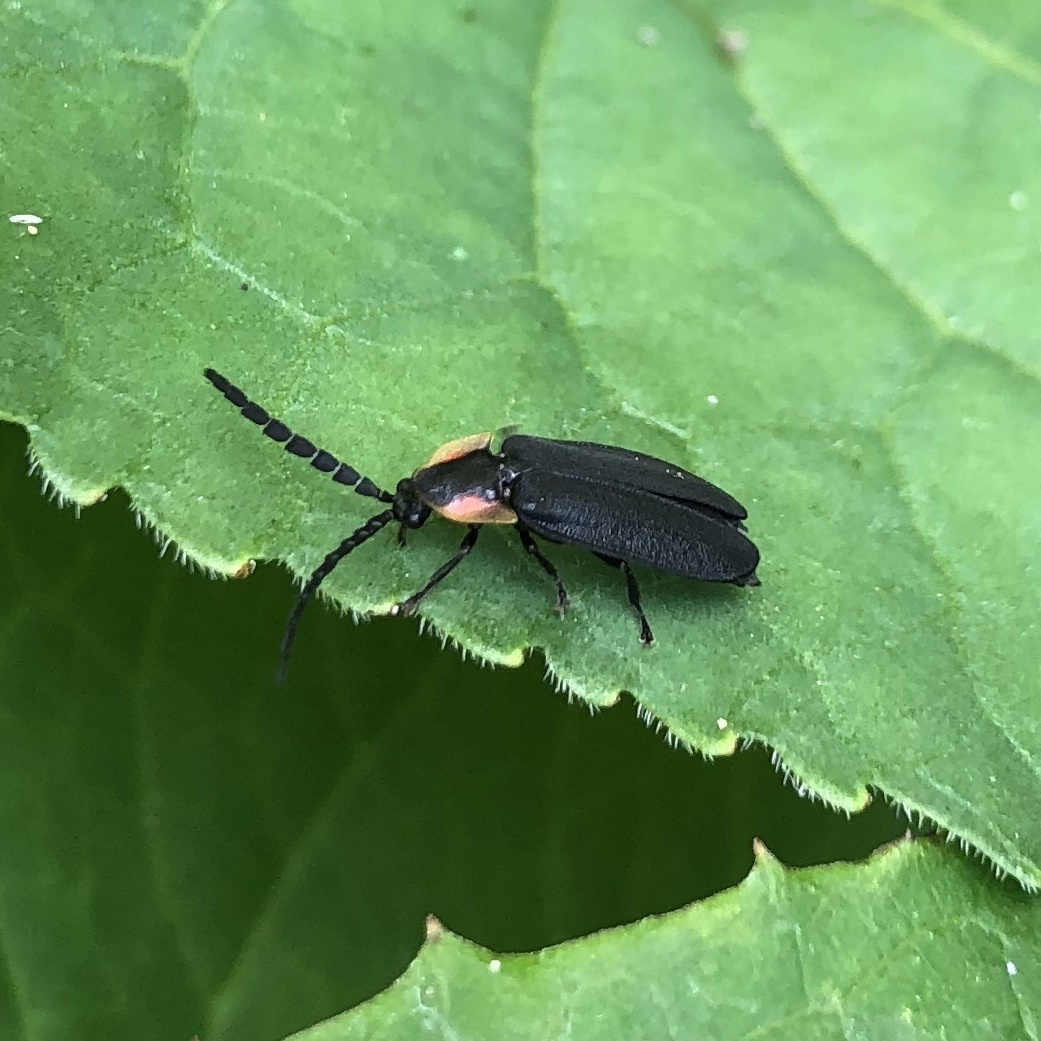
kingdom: Animalia
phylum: Arthropoda
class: Insecta
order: Coleoptera
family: Lampyridae
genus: Lucidota
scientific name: Lucidota atra
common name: Black firefly
